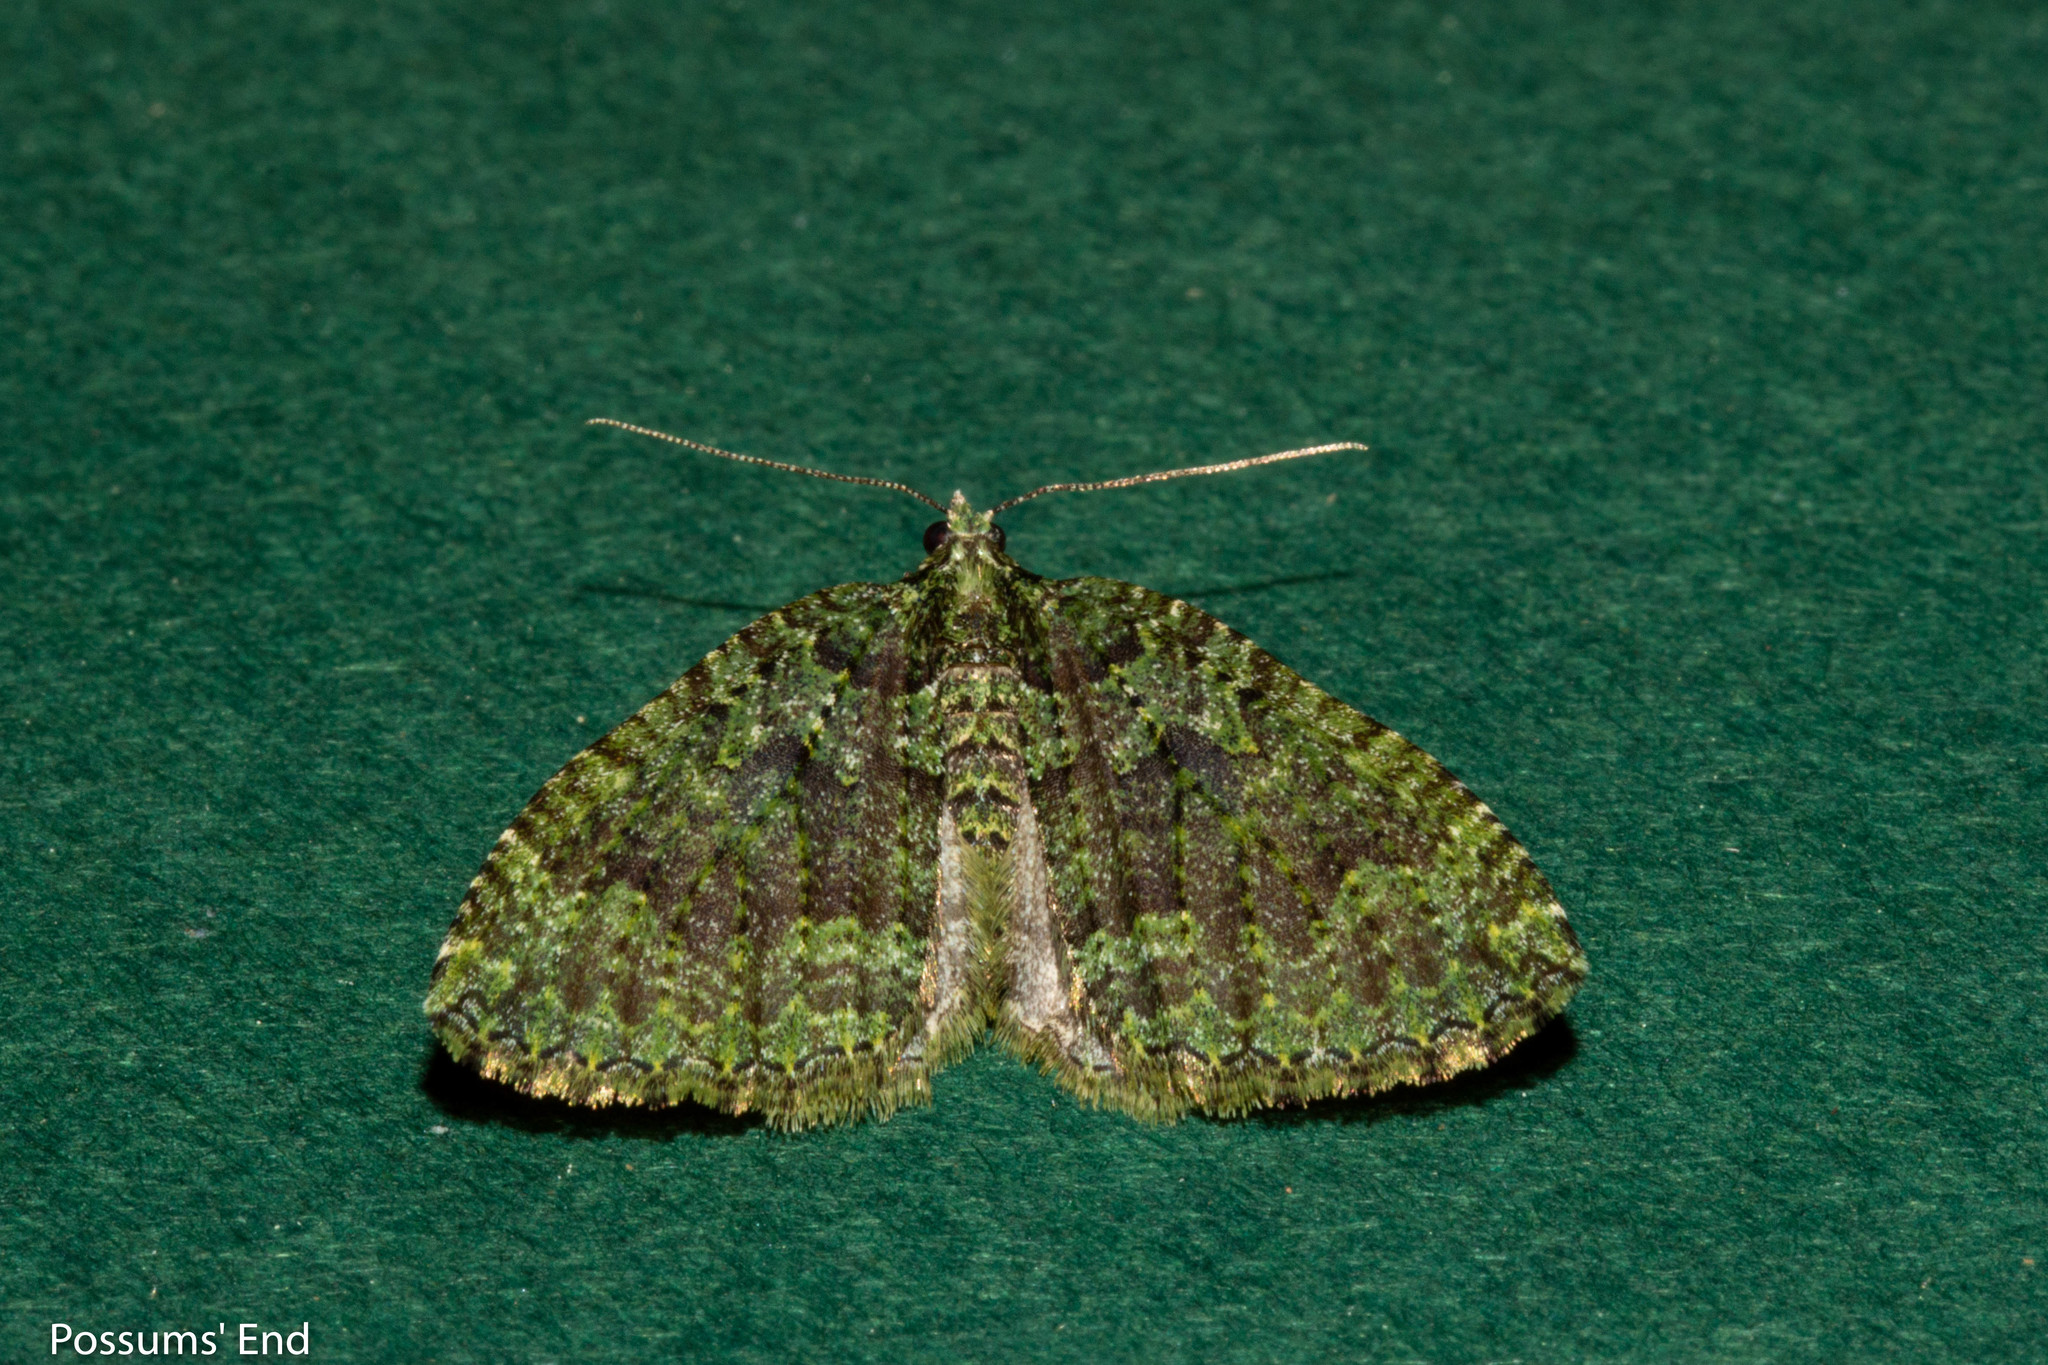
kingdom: Animalia
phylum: Arthropoda
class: Insecta
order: Lepidoptera
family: Geometridae
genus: Austrocidaria
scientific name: Austrocidaria callichlora
